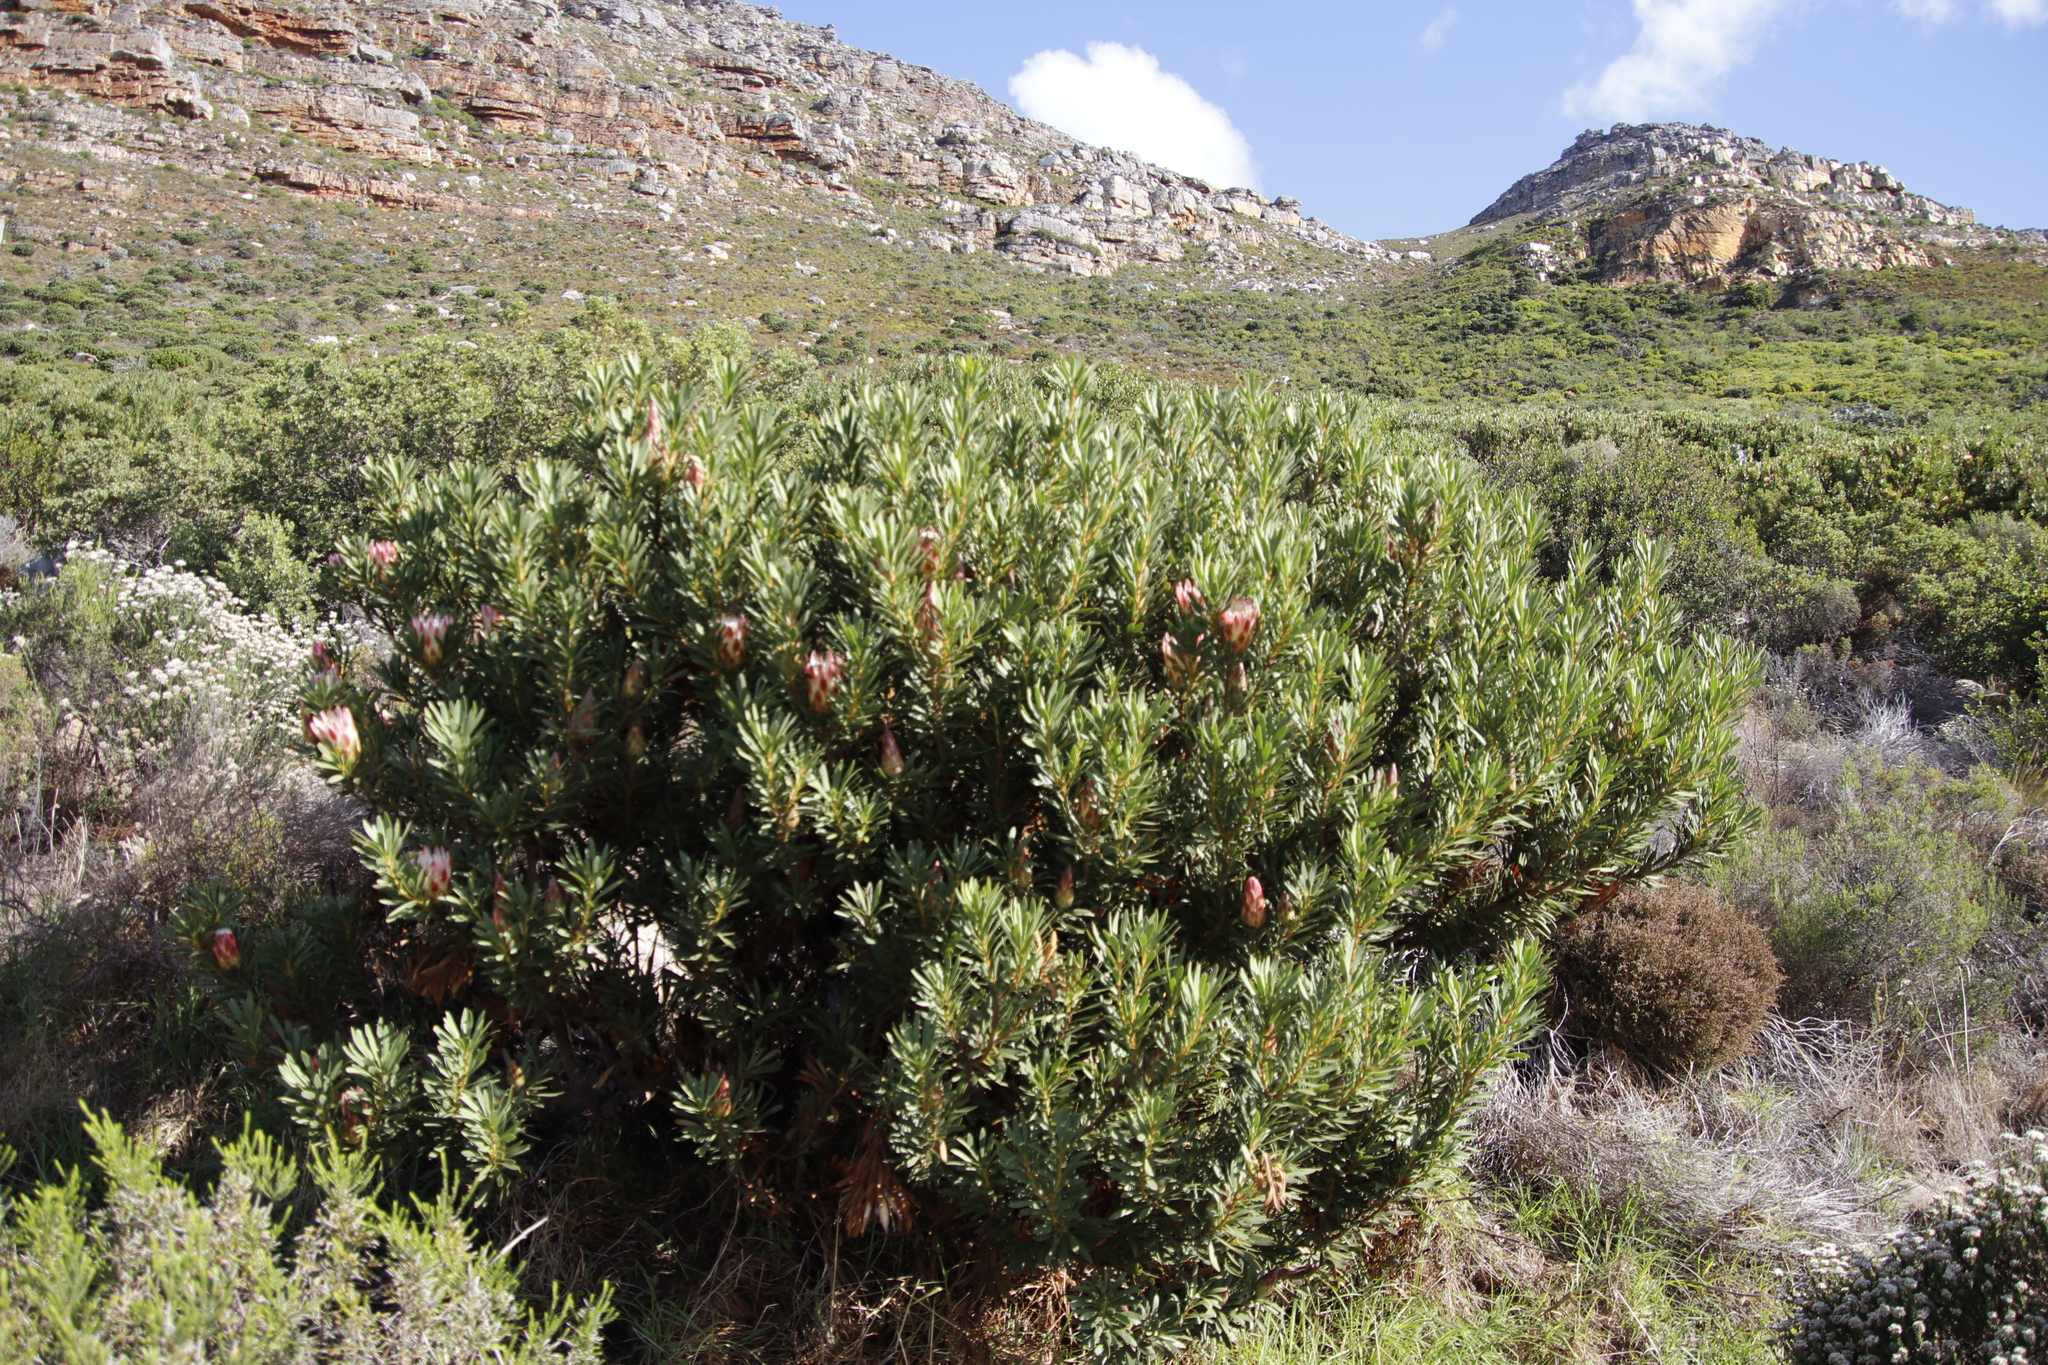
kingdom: Plantae
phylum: Tracheophyta
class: Magnoliopsida
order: Proteales
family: Proteaceae
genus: Protea
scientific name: Protea repens
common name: Sugarbush
